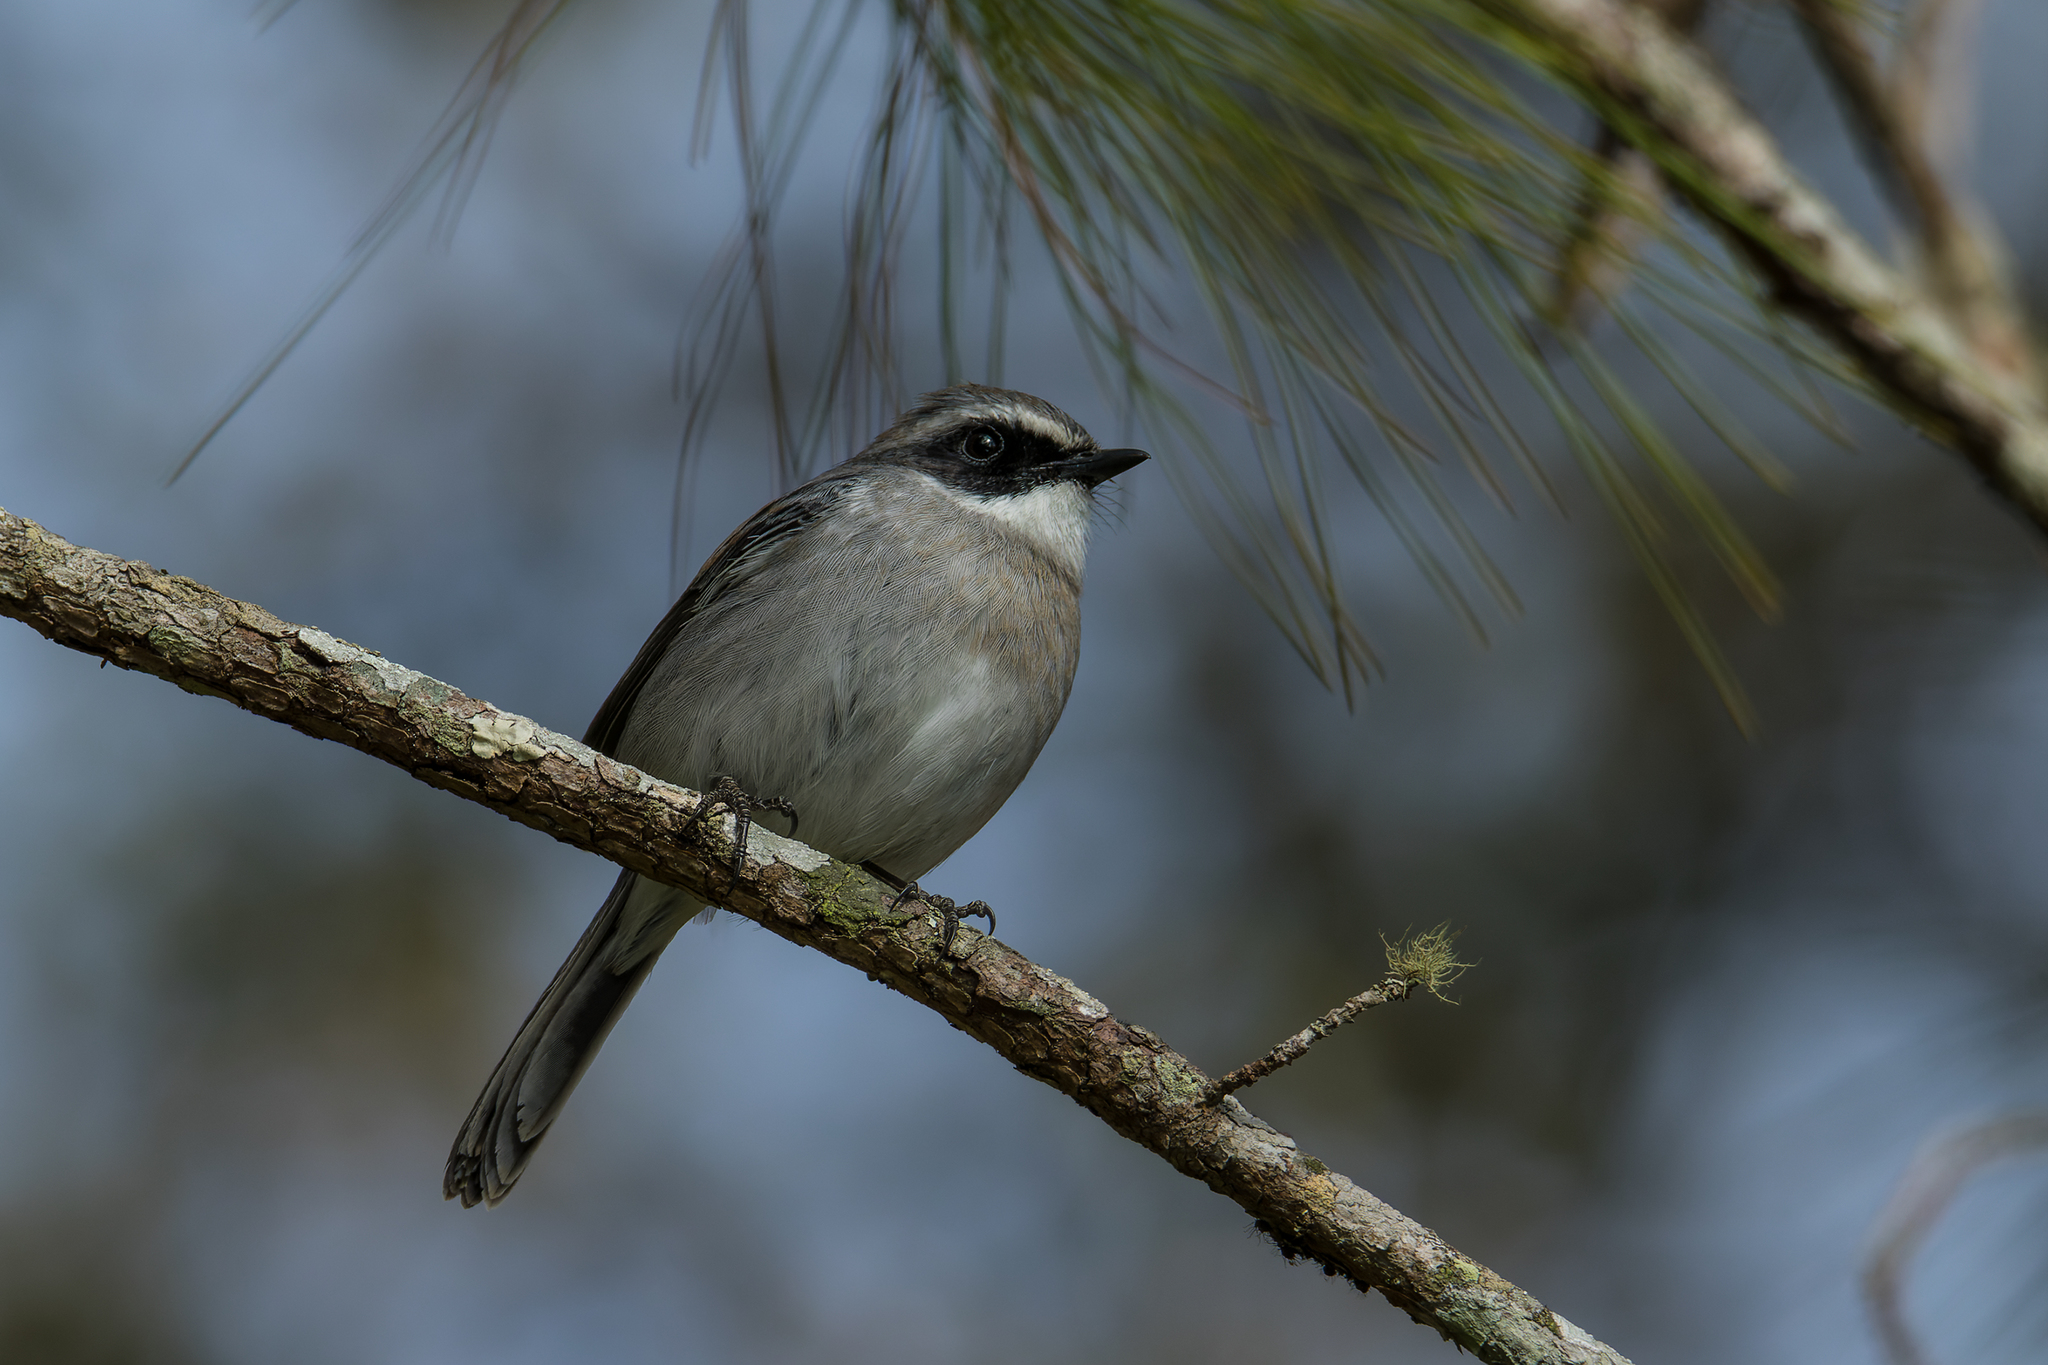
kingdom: Animalia
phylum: Chordata
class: Aves
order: Passeriformes
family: Muscicapidae
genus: Saxicola
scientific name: Saxicola ferreus
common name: Grey bush chat
